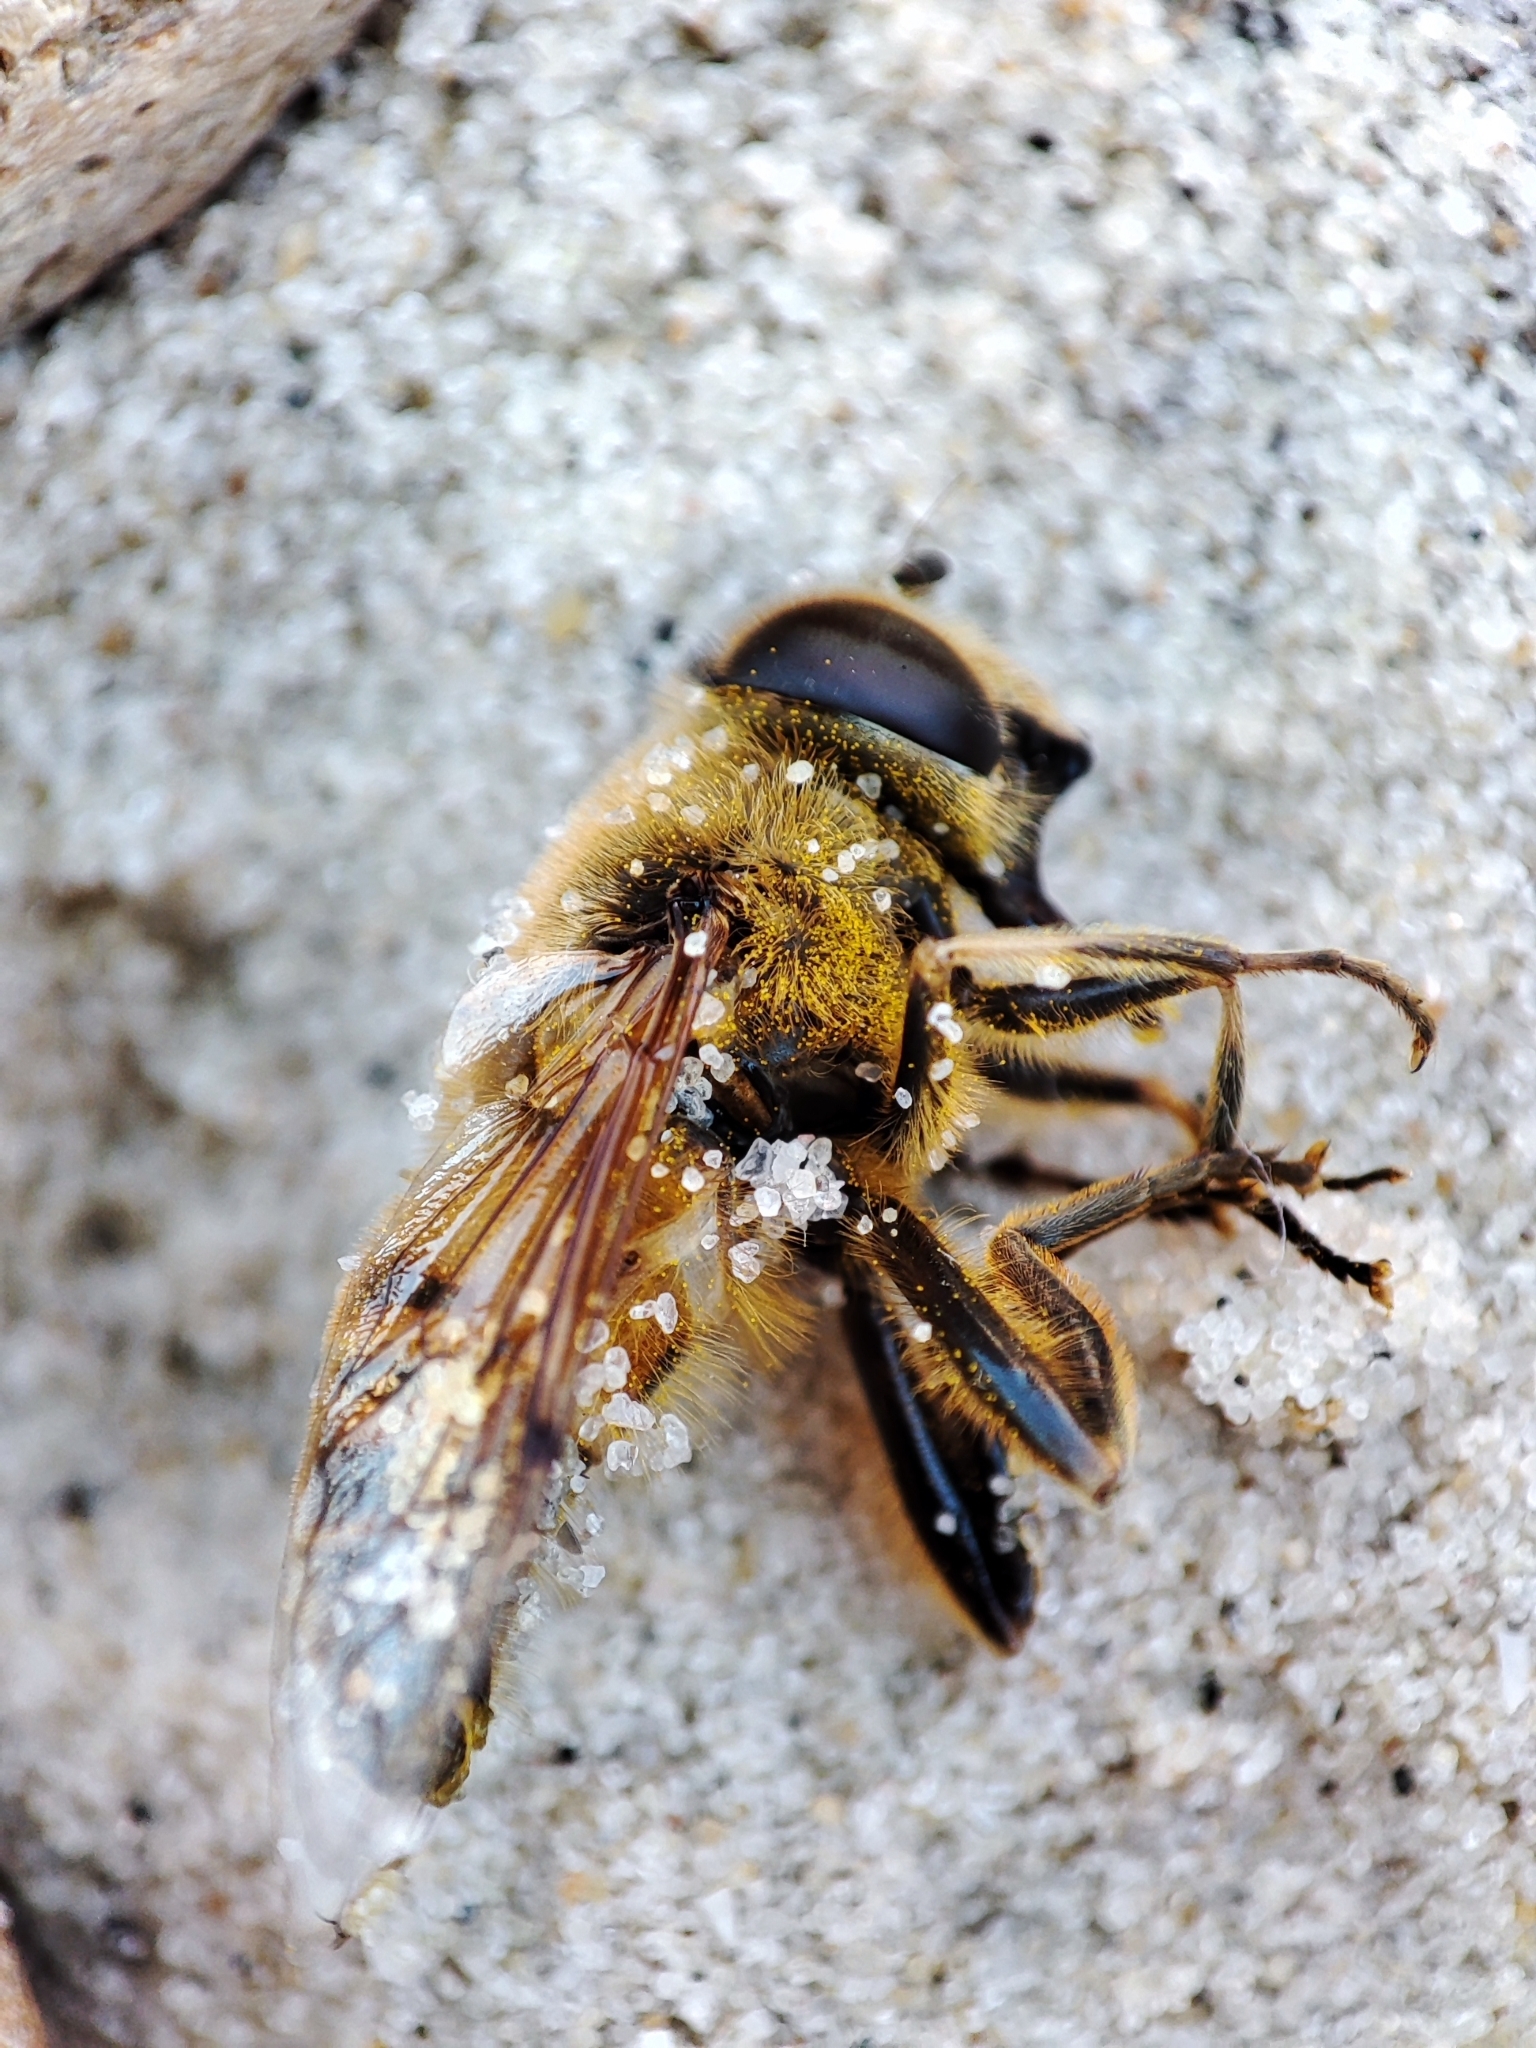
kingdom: Animalia
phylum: Arthropoda
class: Insecta
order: Diptera
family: Syrphidae
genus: Eristalis
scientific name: Eristalis tenax
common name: Drone fly
